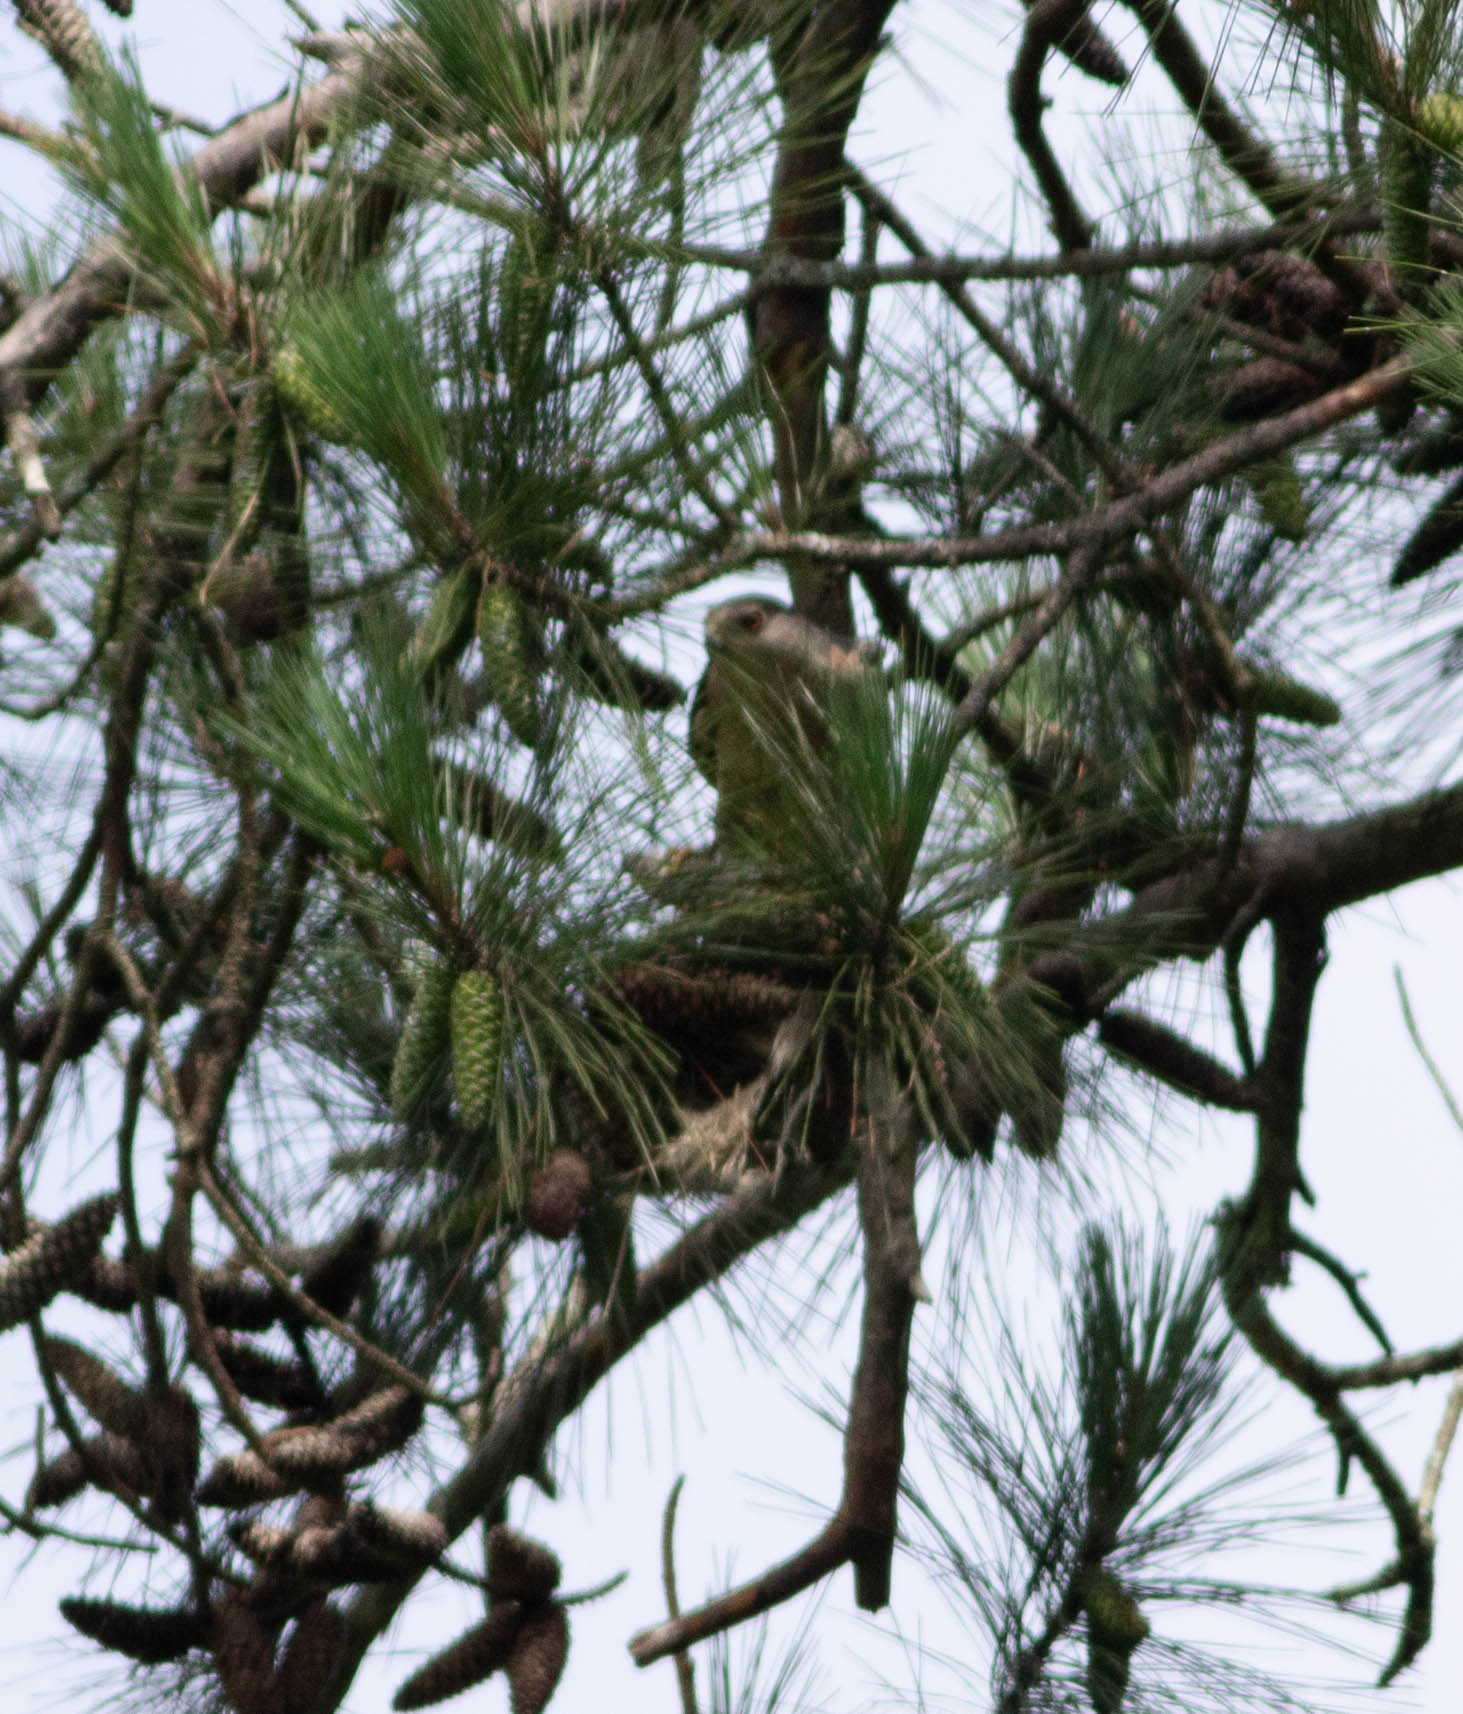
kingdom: Animalia
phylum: Chordata
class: Aves
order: Accipitriformes
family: Accipitridae
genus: Accipiter
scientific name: Accipiter cooperii
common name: Cooper's hawk
